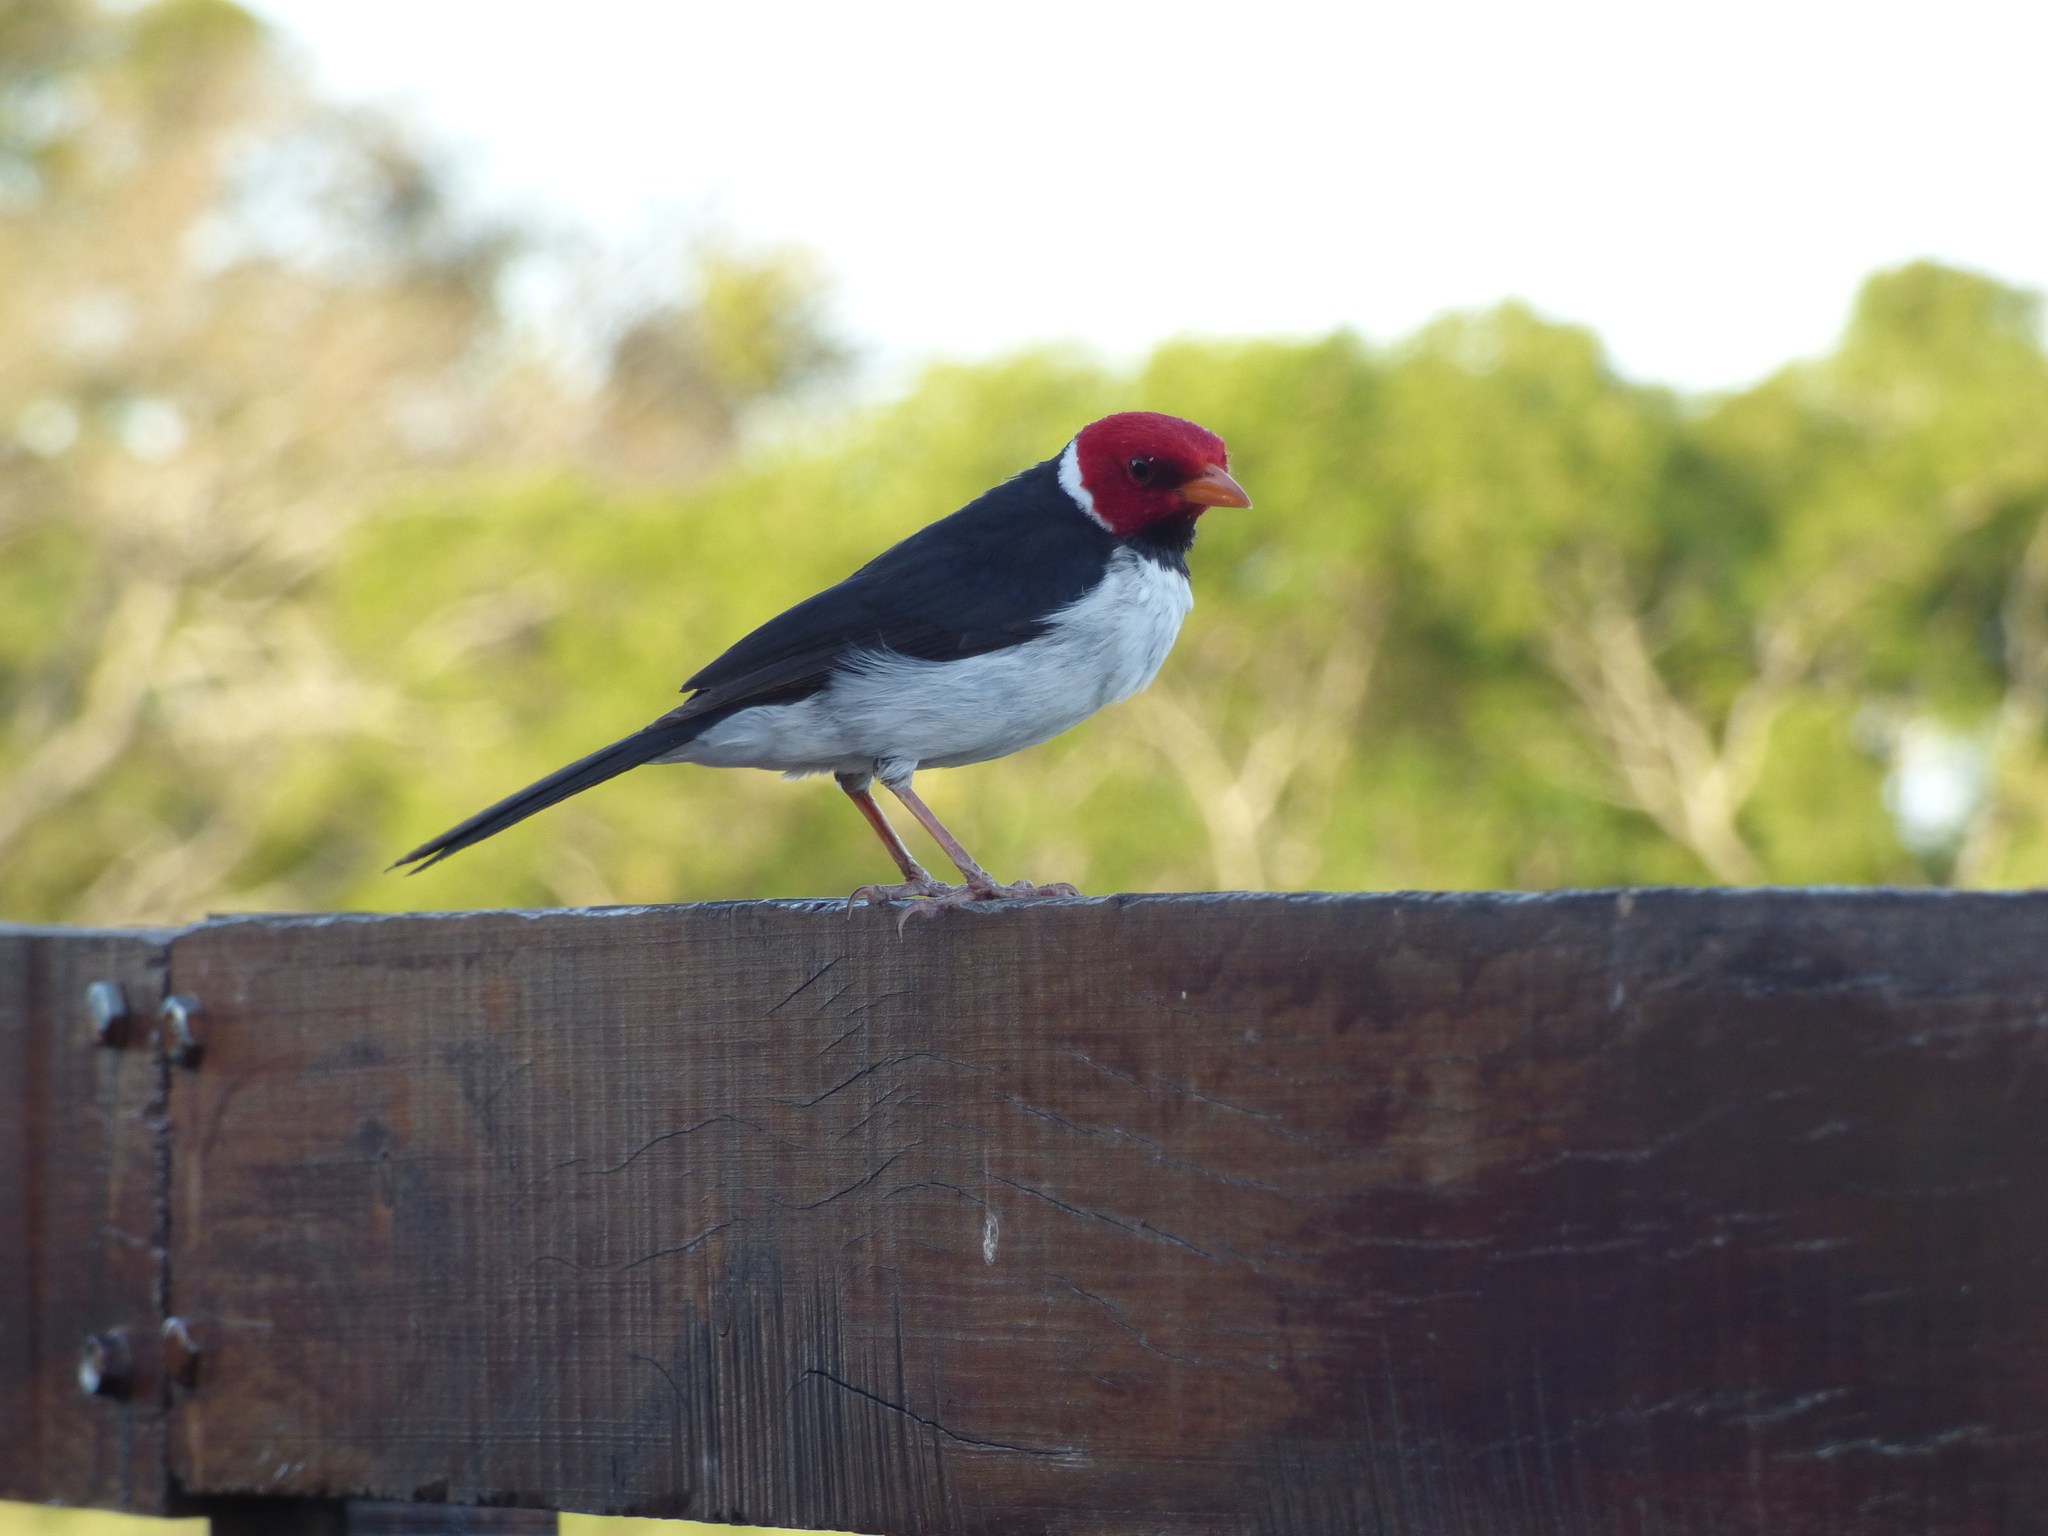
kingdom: Animalia
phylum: Chordata
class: Aves
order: Passeriformes
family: Thraupidae
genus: Paroaria
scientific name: Paroaria capitata
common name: Yellow-billed cardinal
